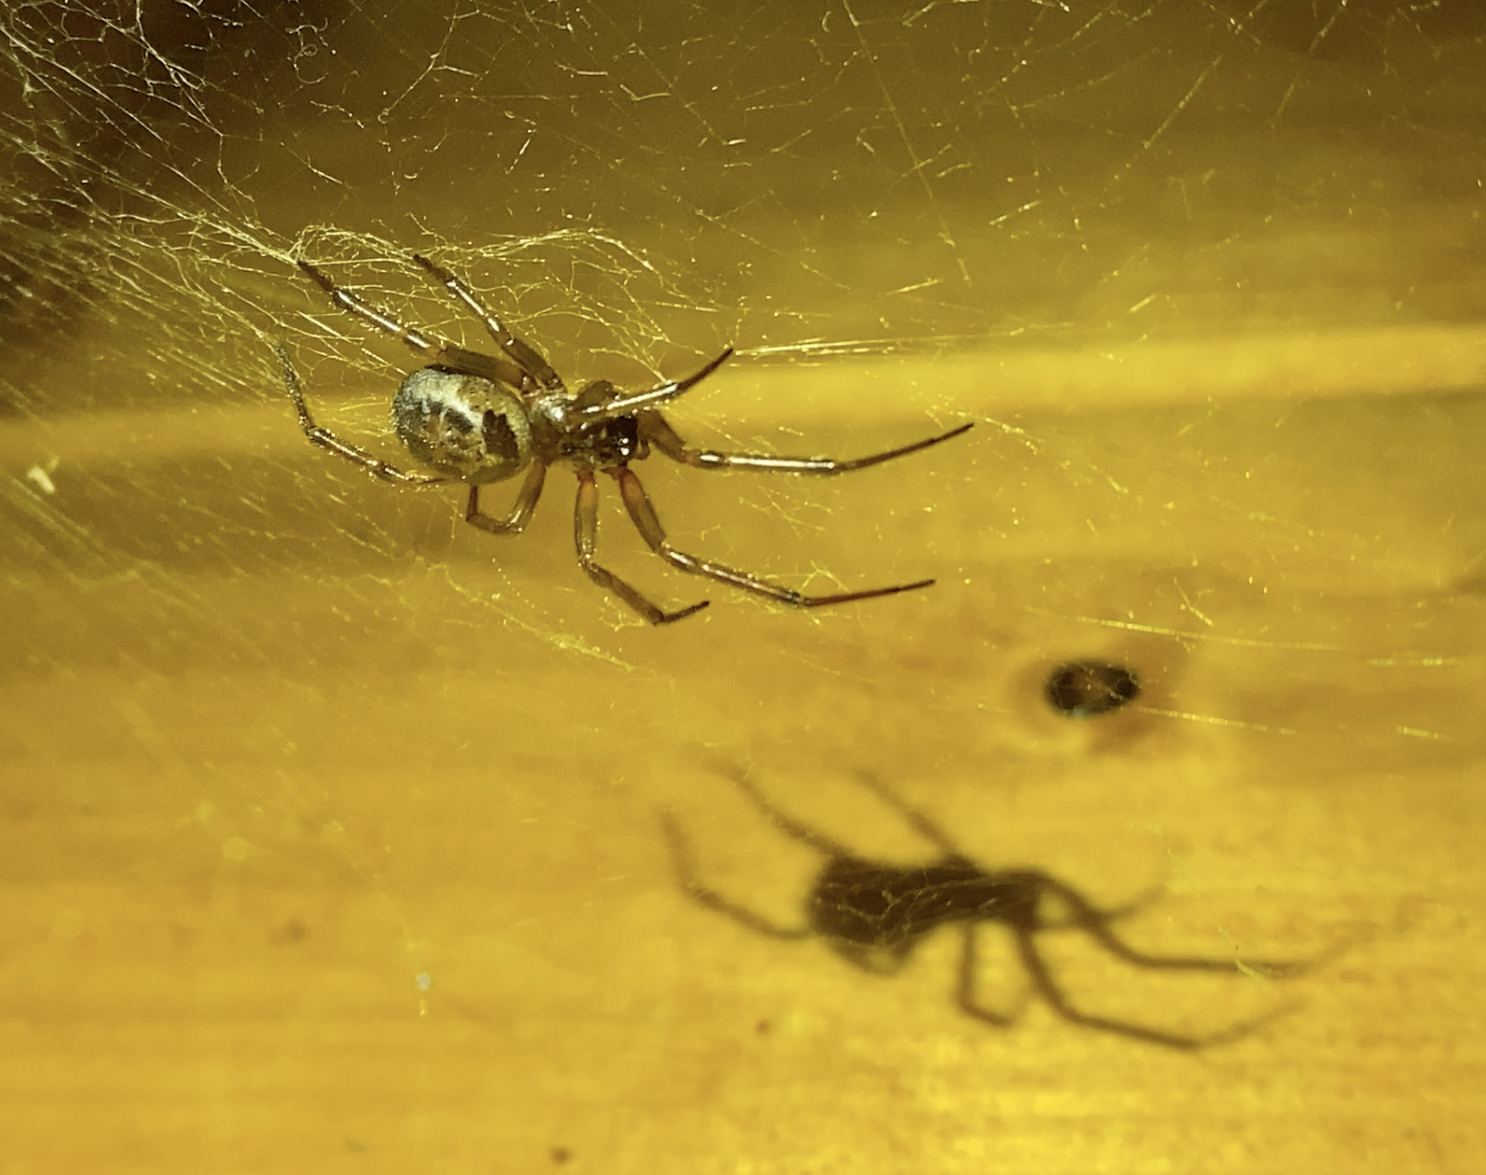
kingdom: Animalia
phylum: Arthropoda
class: Arachnida
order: Araneae
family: Theridiidae
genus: Steatoda
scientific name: Steatoda nobilis
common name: Cobweb weaver
